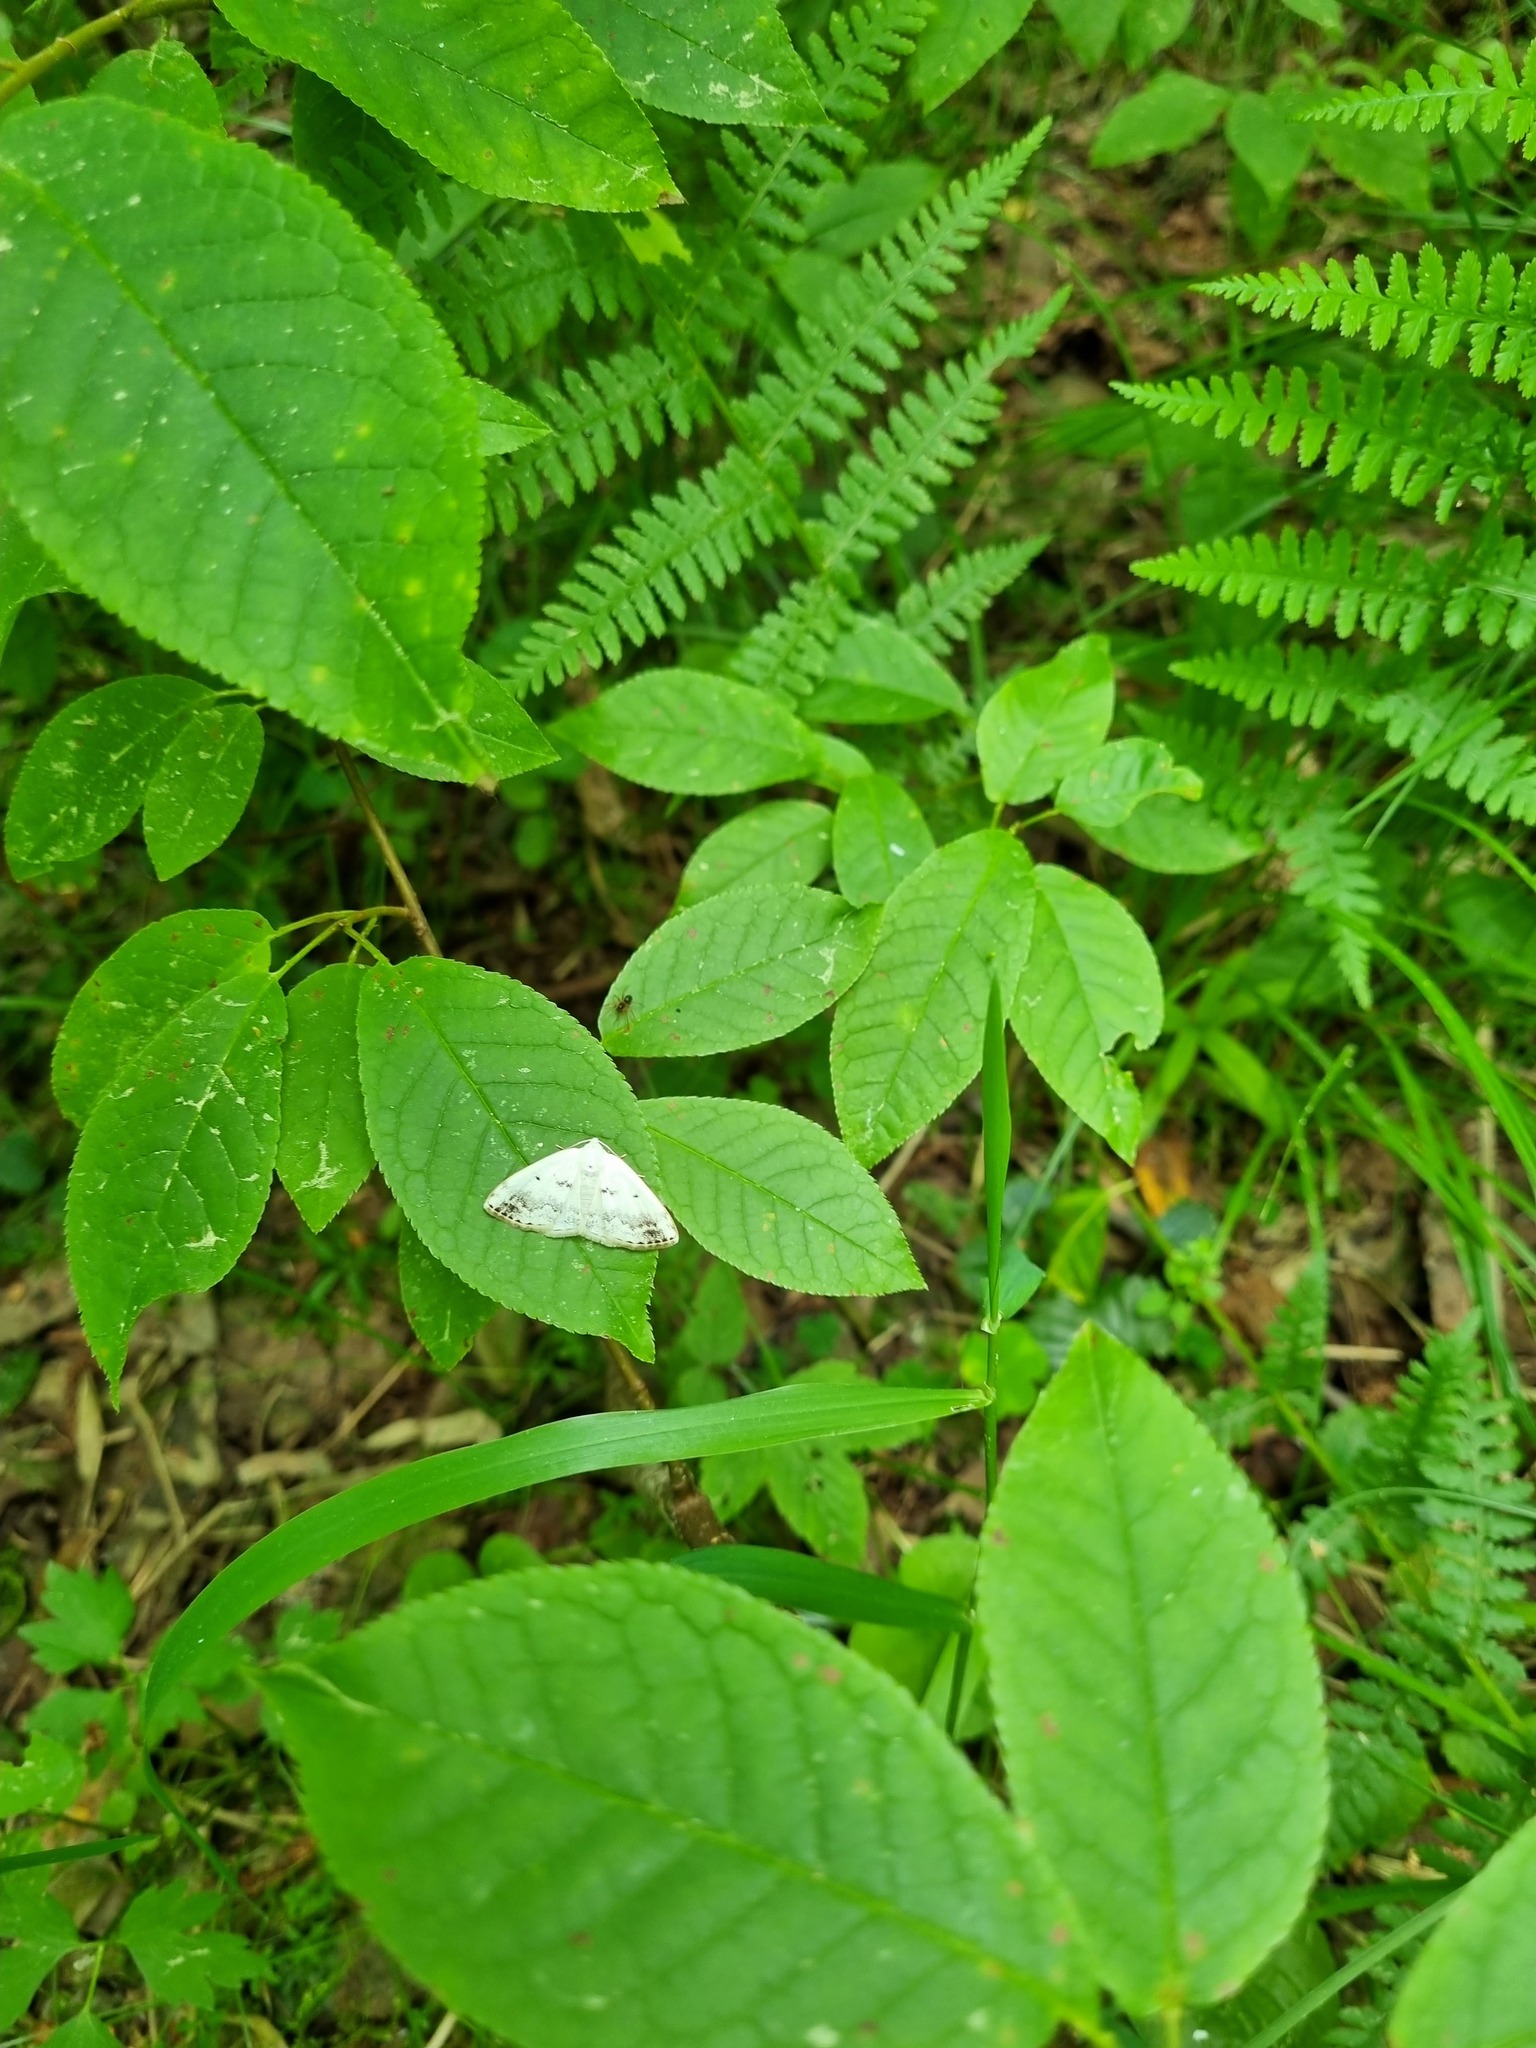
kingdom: Animalia
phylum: Arthropoda
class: Insecta
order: Lepidoptera
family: Geometridae
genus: Lomographa
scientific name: Lomographa temerata
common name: Clouded silver
